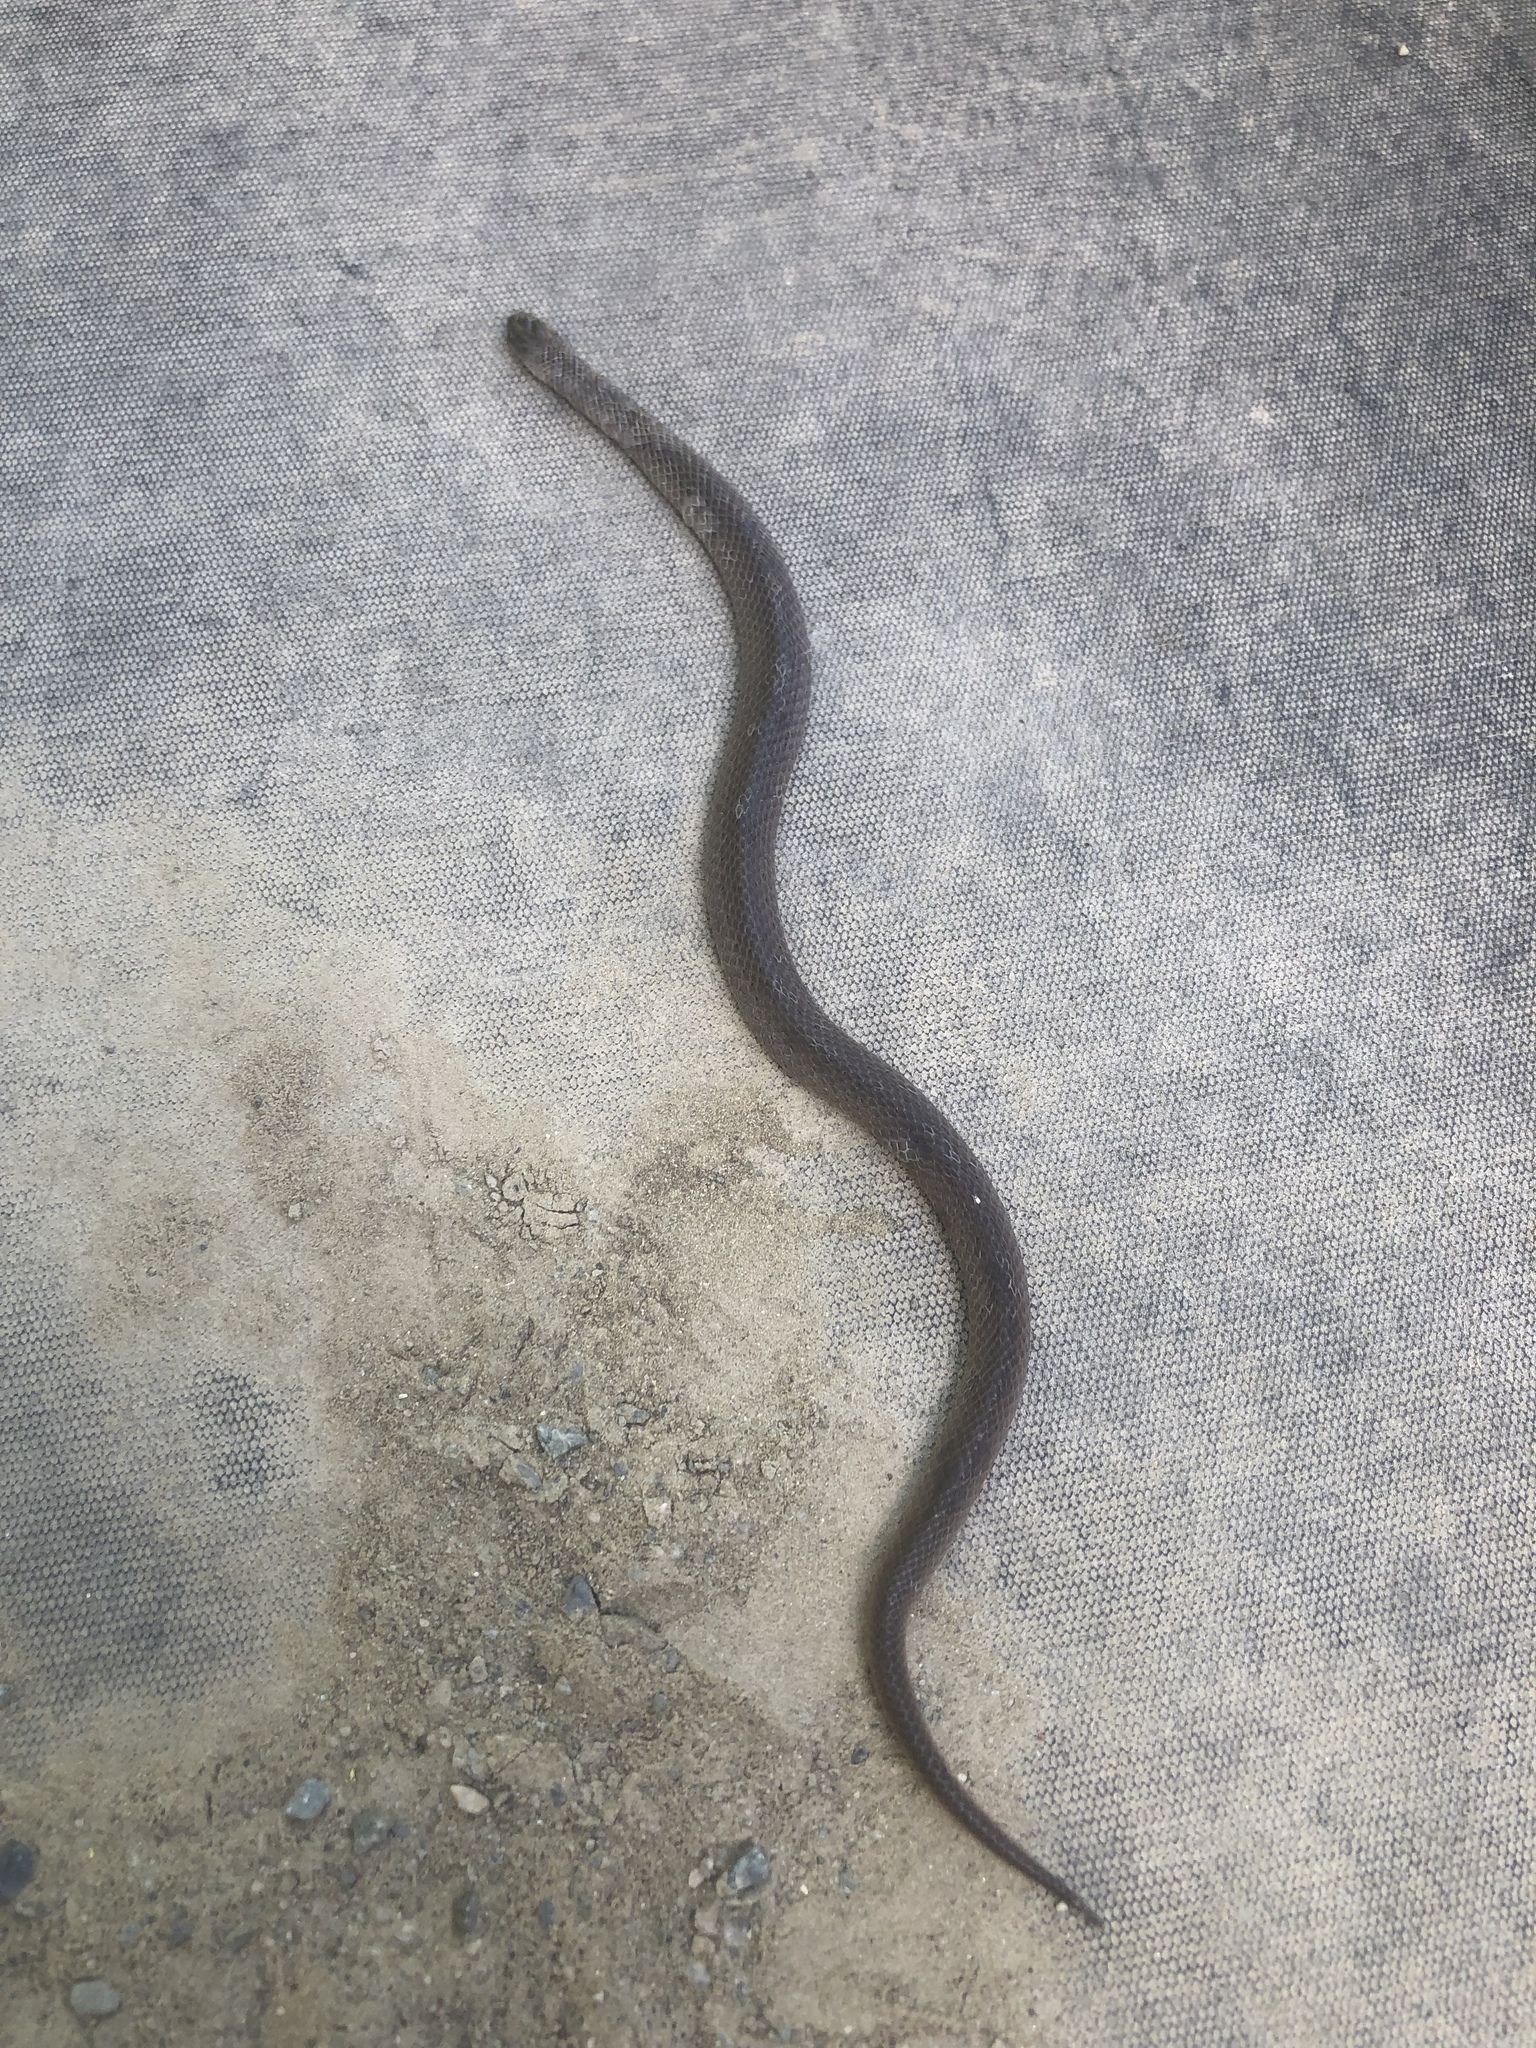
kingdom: Animalia
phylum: Chordata
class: Squamata
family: Colubridae
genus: Virginia
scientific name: Virginia valeriae
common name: Smooth earth snake
